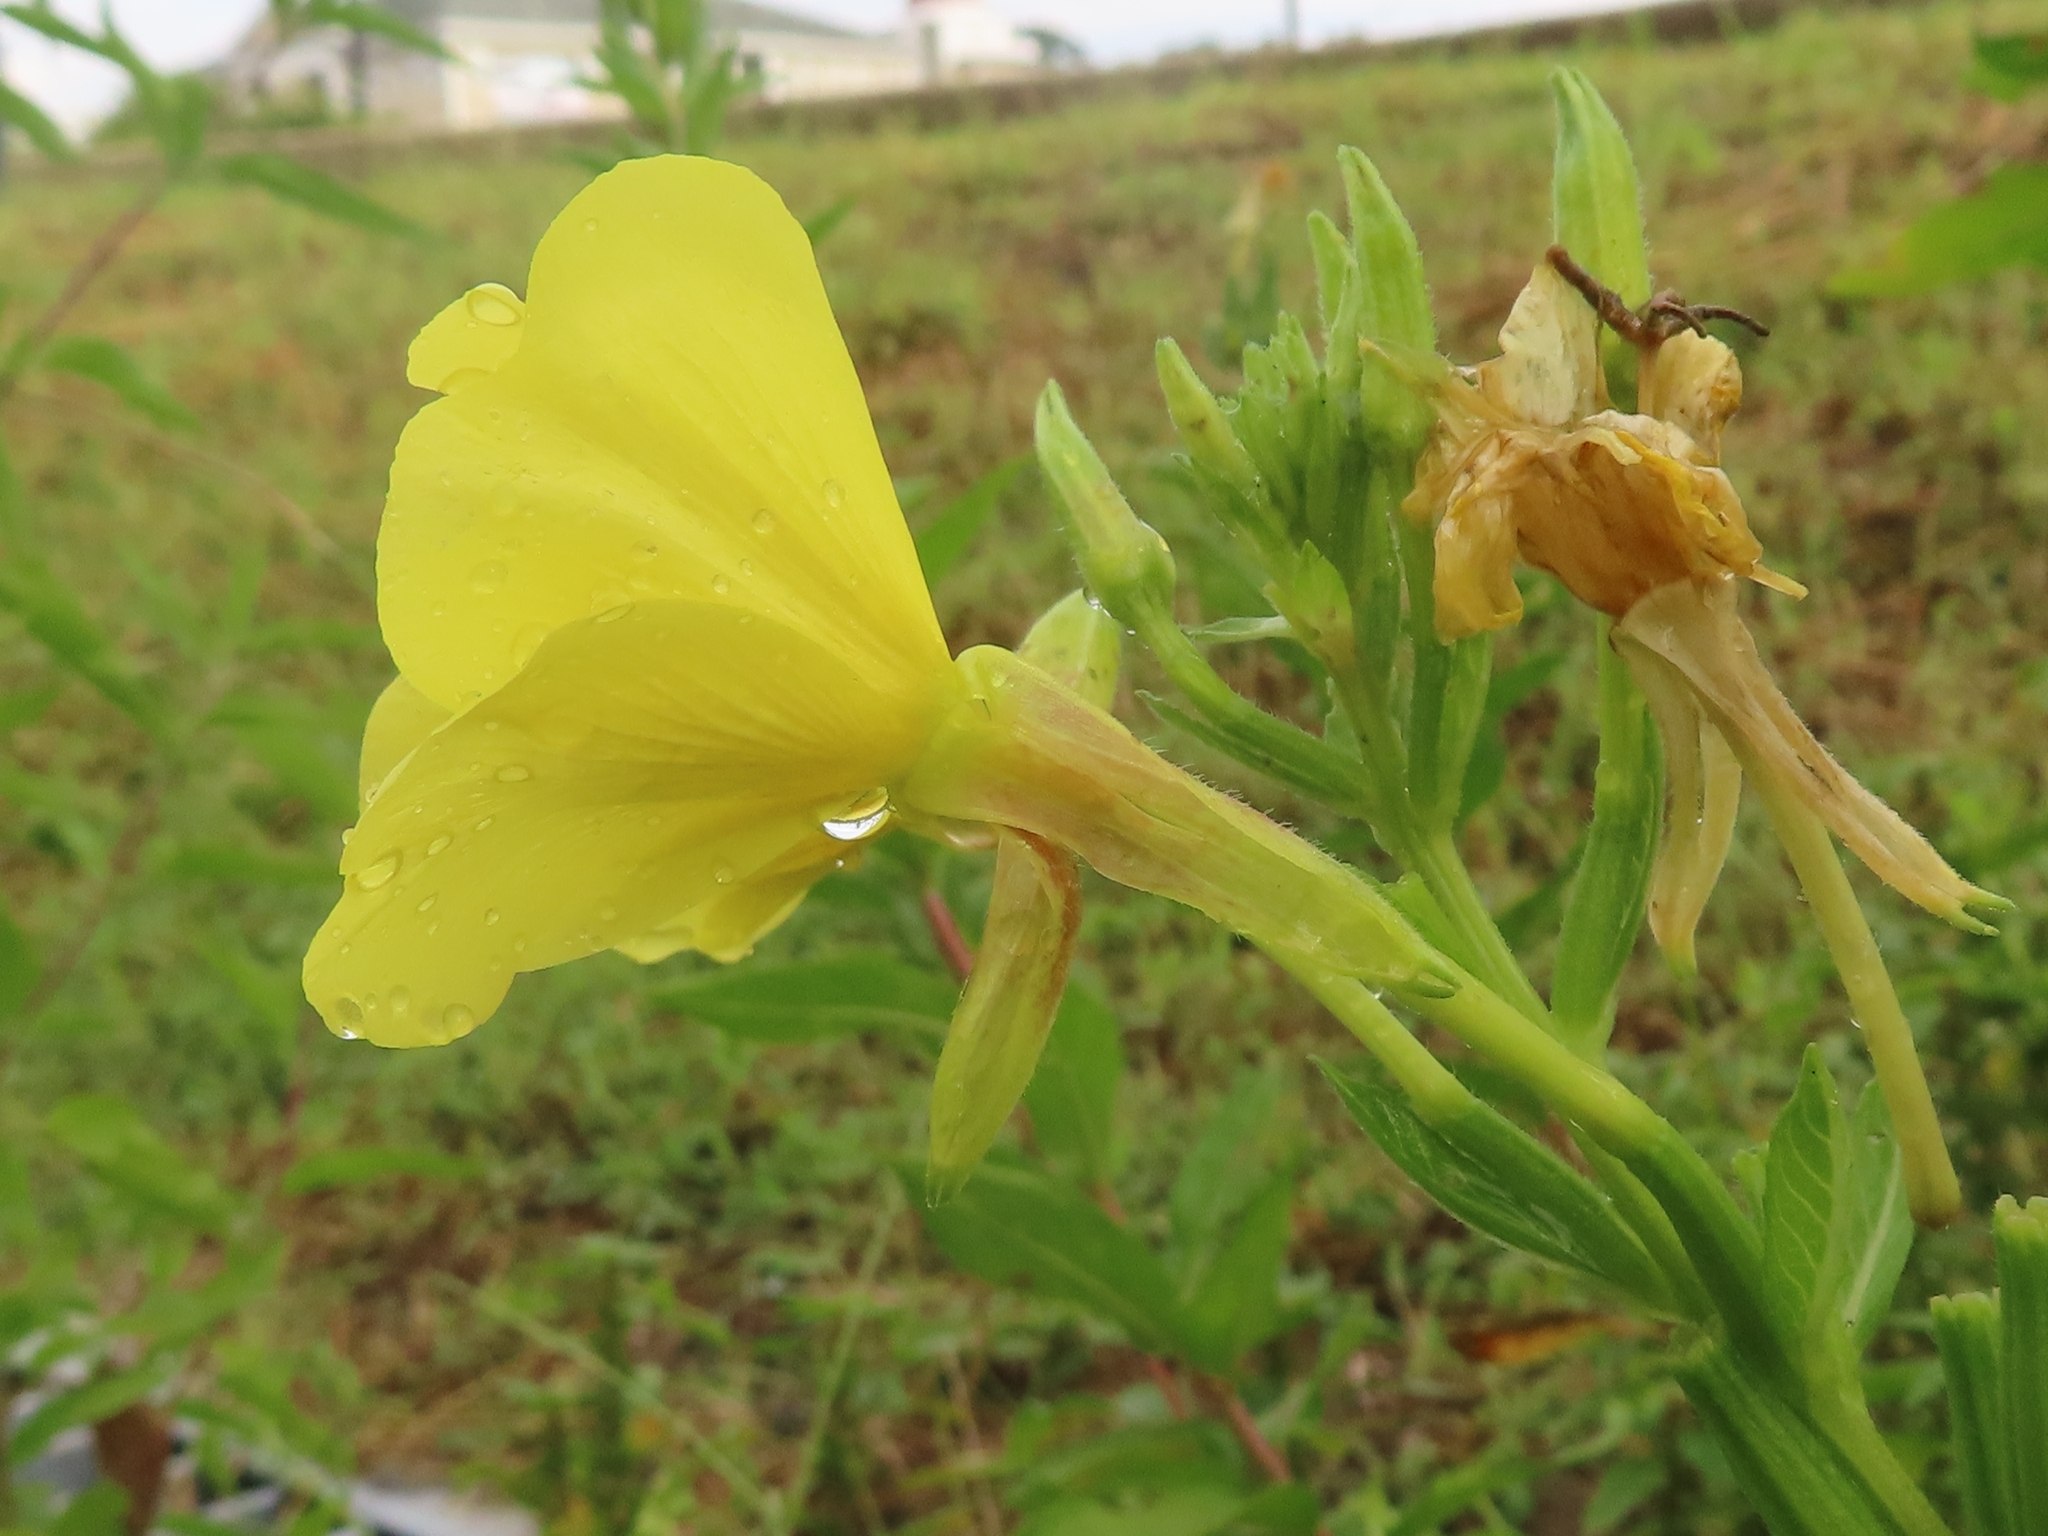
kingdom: Plantae
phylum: Tracheophyta
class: Magnoliopsida
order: Myrtales
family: Onagraceae
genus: Oenothera
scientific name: Oenothera biennis
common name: Common evening-primrose
